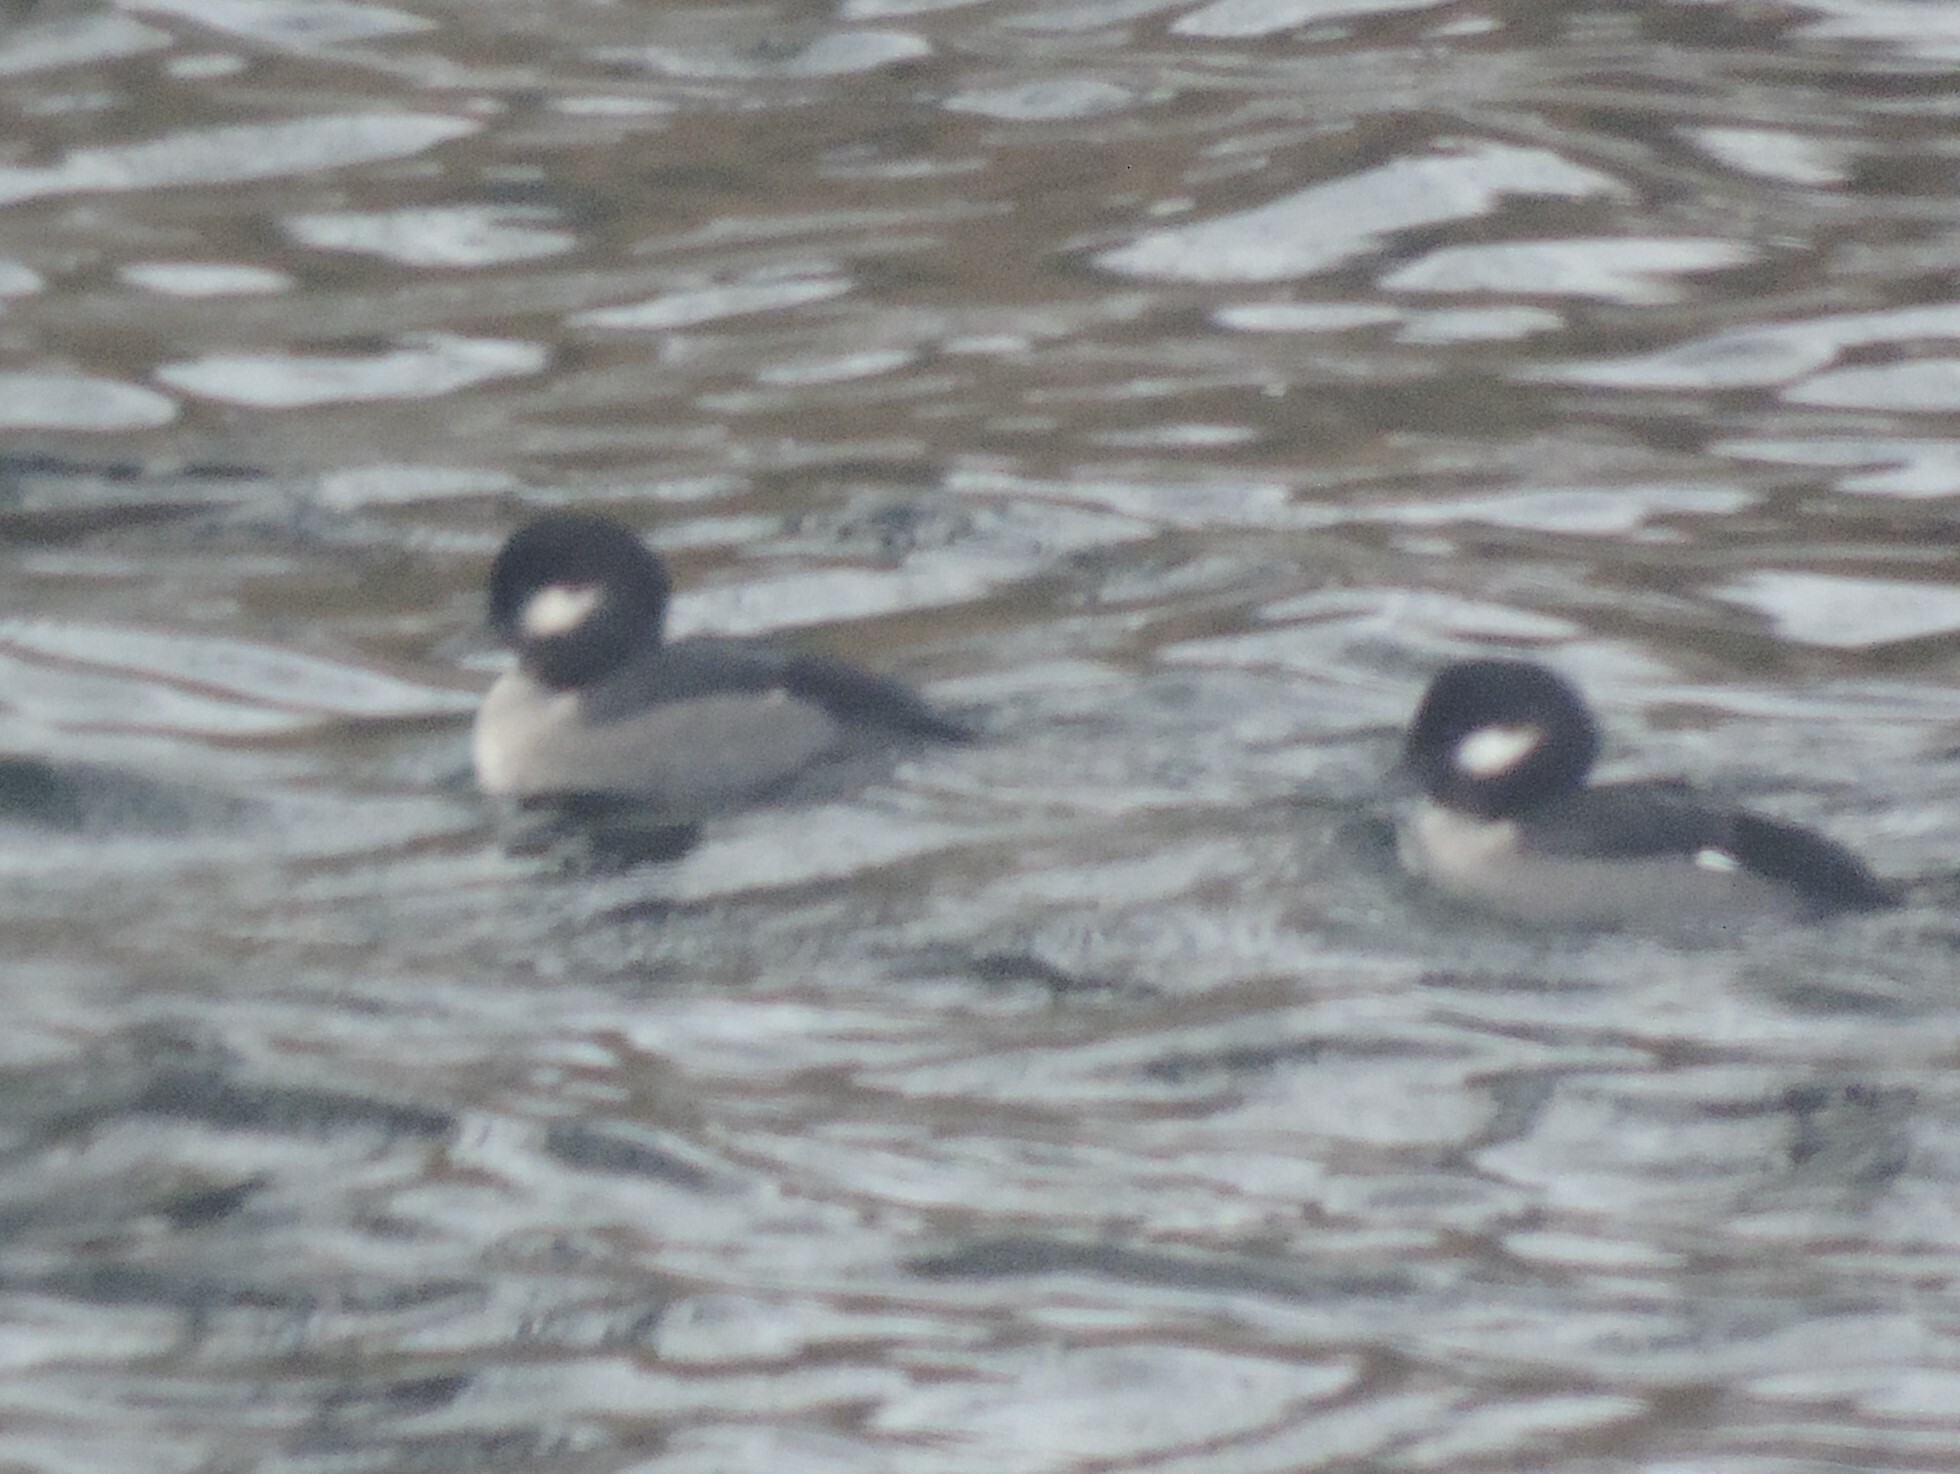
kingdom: Animalia
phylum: Chordata
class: Aves
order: Anseriformes
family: Anatidae
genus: Bucephala
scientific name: Bucephala albeola
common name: Bufflehead
